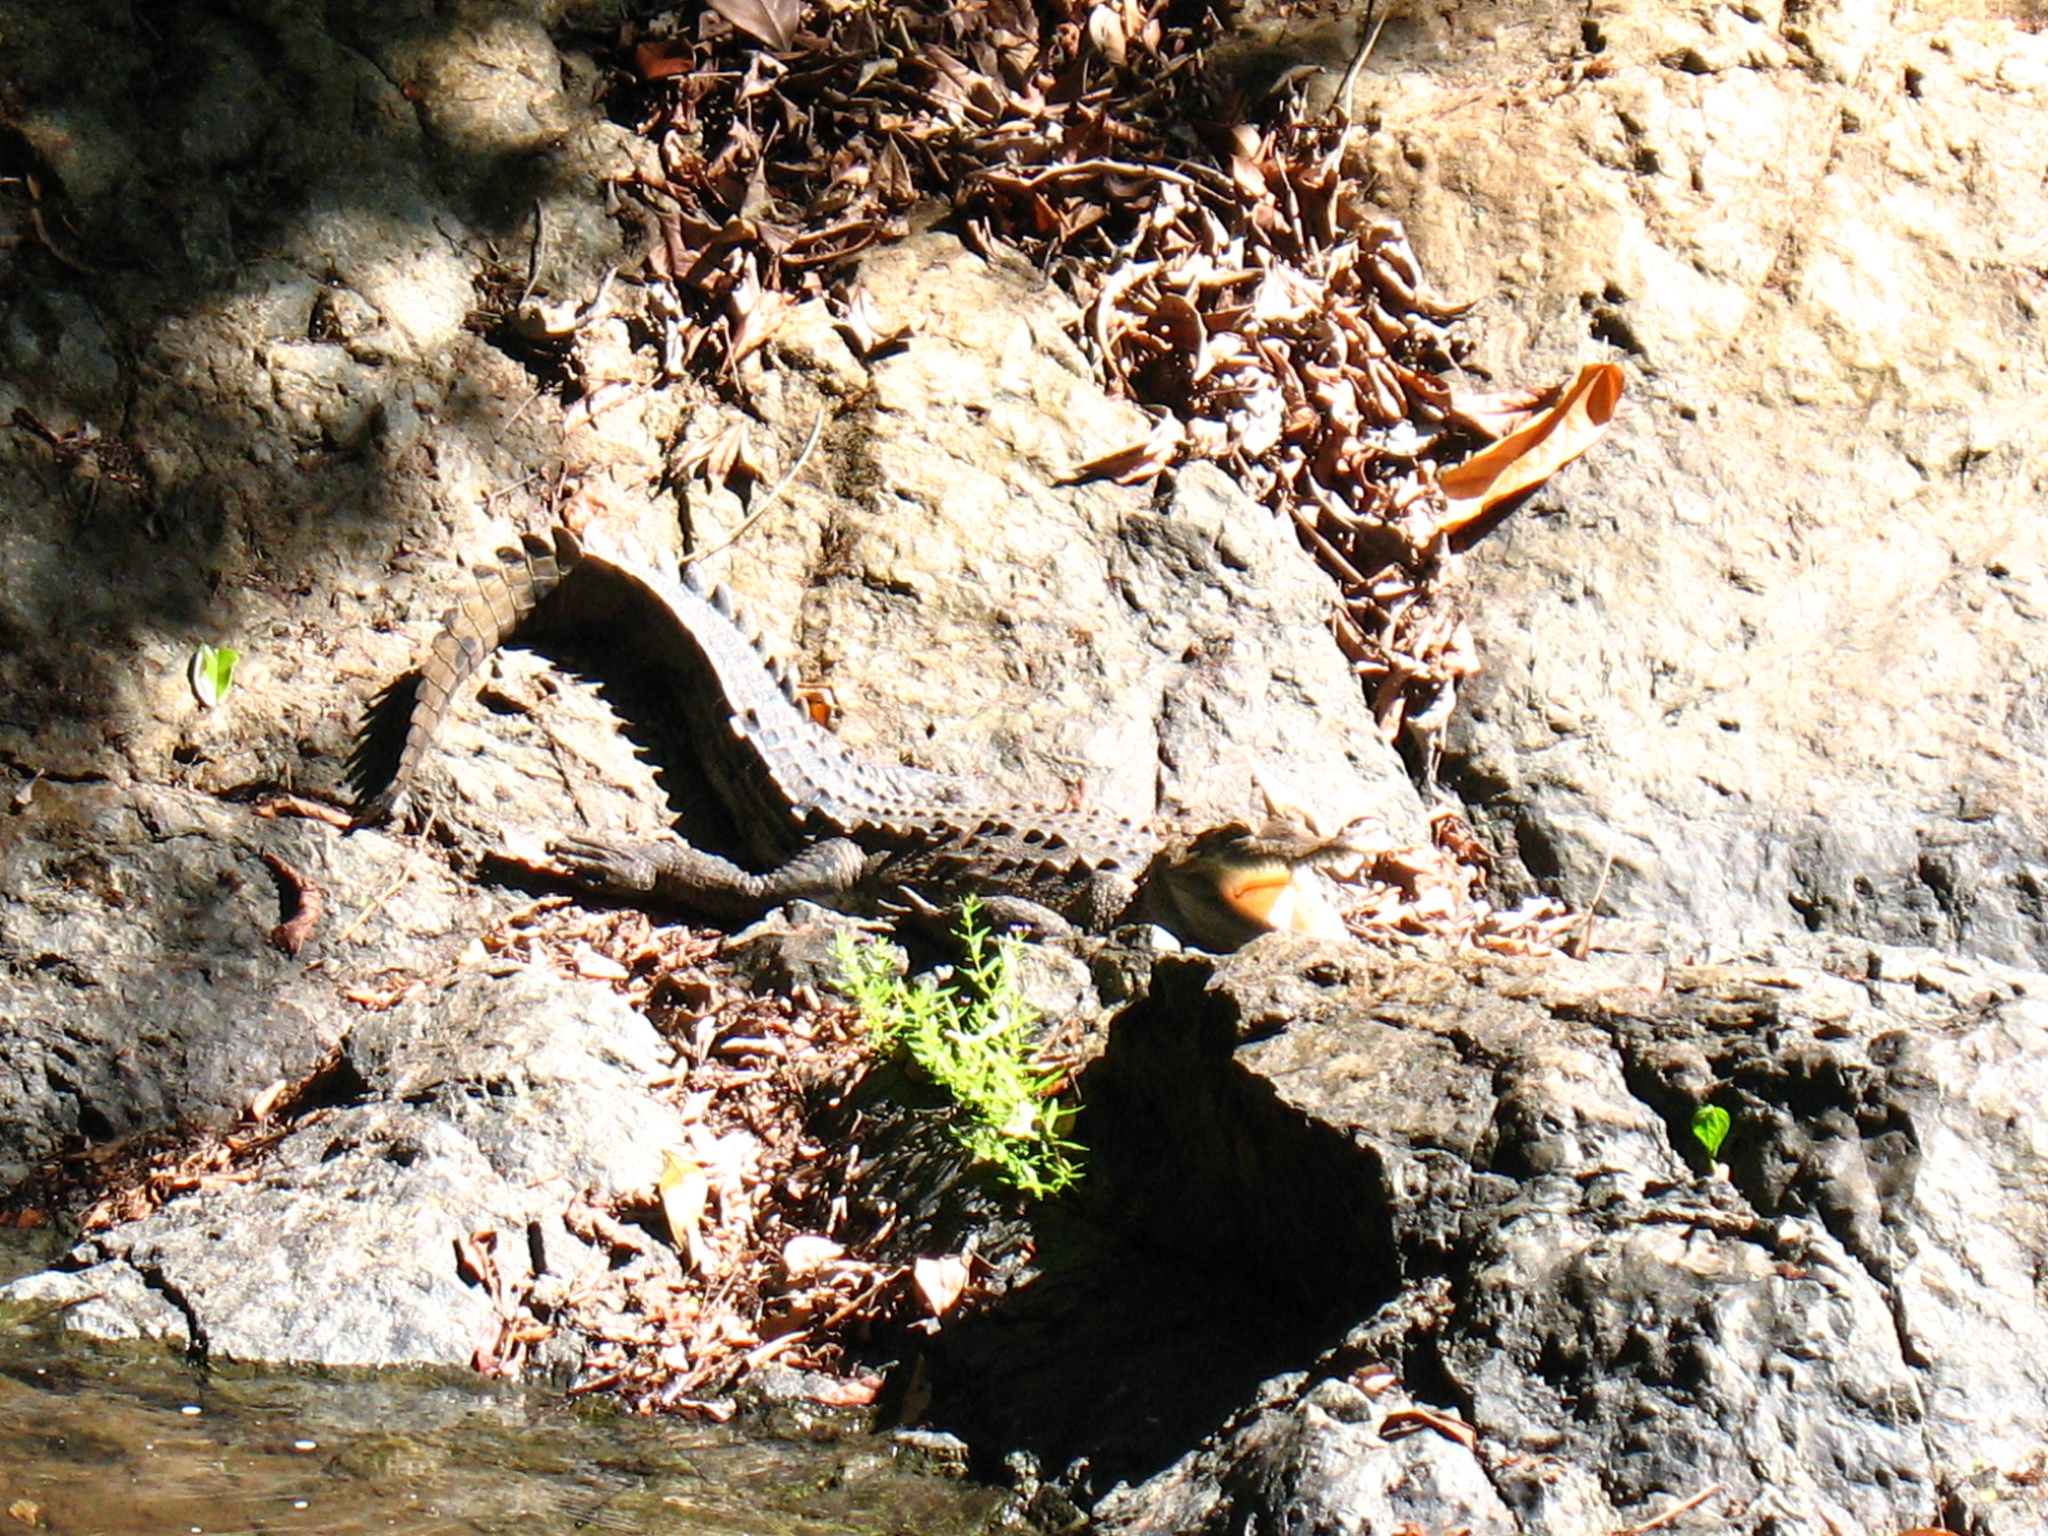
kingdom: Animalia
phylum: Chordata
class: Crocodylia
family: Crocodylidae
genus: Crocodylus
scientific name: Crocodylus acutus
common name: American crocodile
